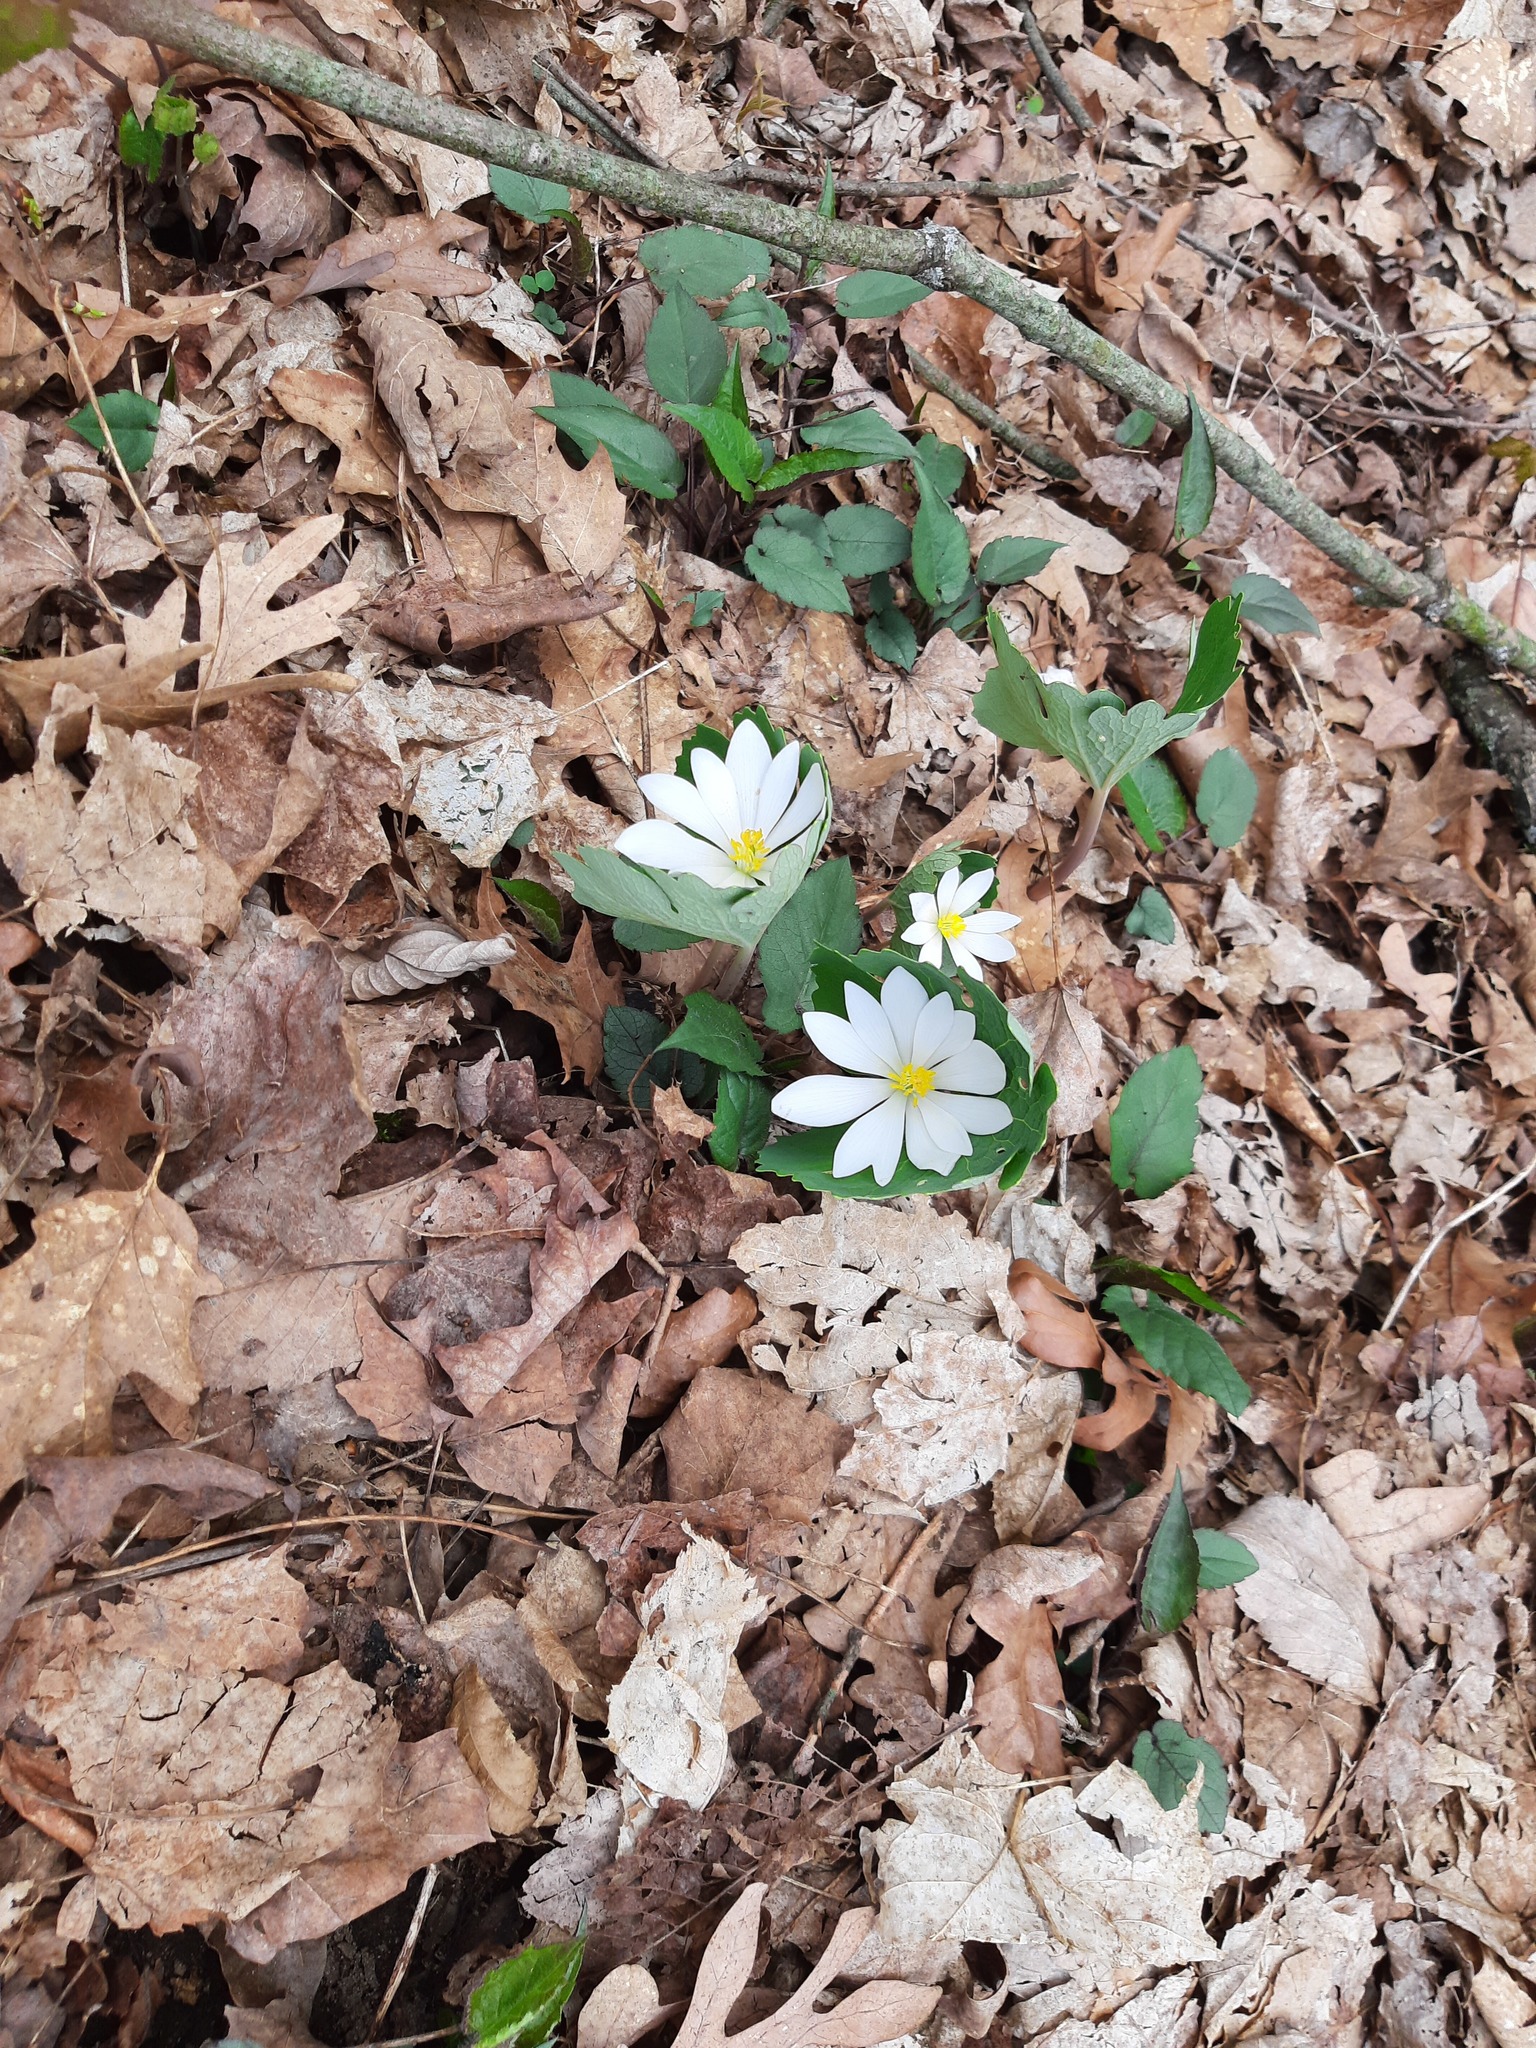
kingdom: Plantae
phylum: Tracheophyta
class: Magnoliopsida
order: Ranunculales
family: Papaveraceae
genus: Sanguinaria
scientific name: Sanguinaria canadensis
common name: Bloodroot
